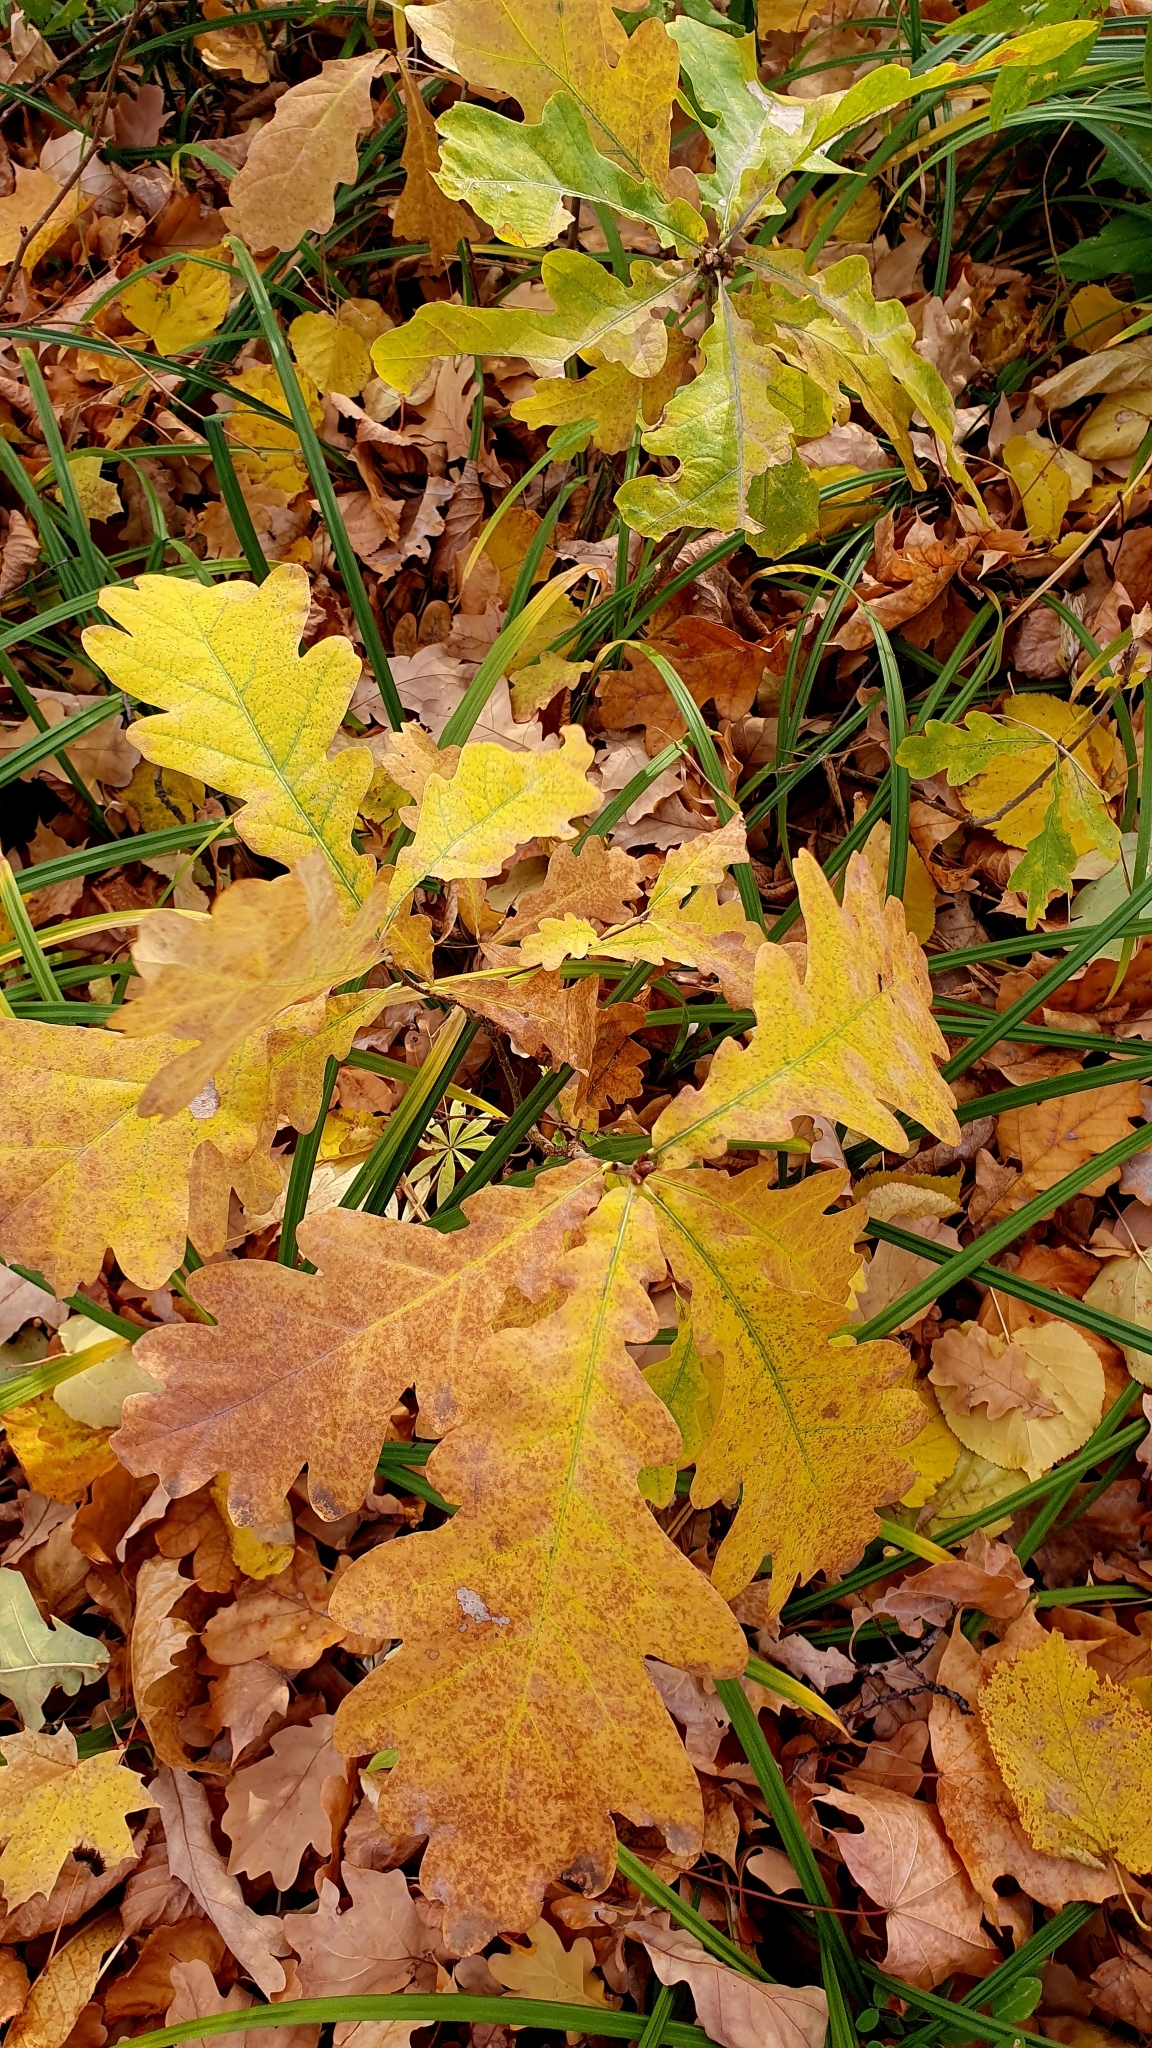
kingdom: Plantae
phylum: Tracheophyta
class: Magnoliopsida
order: Fagales
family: Fagaceae
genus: Quercus
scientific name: Quercus robur
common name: Pedunculate oak
